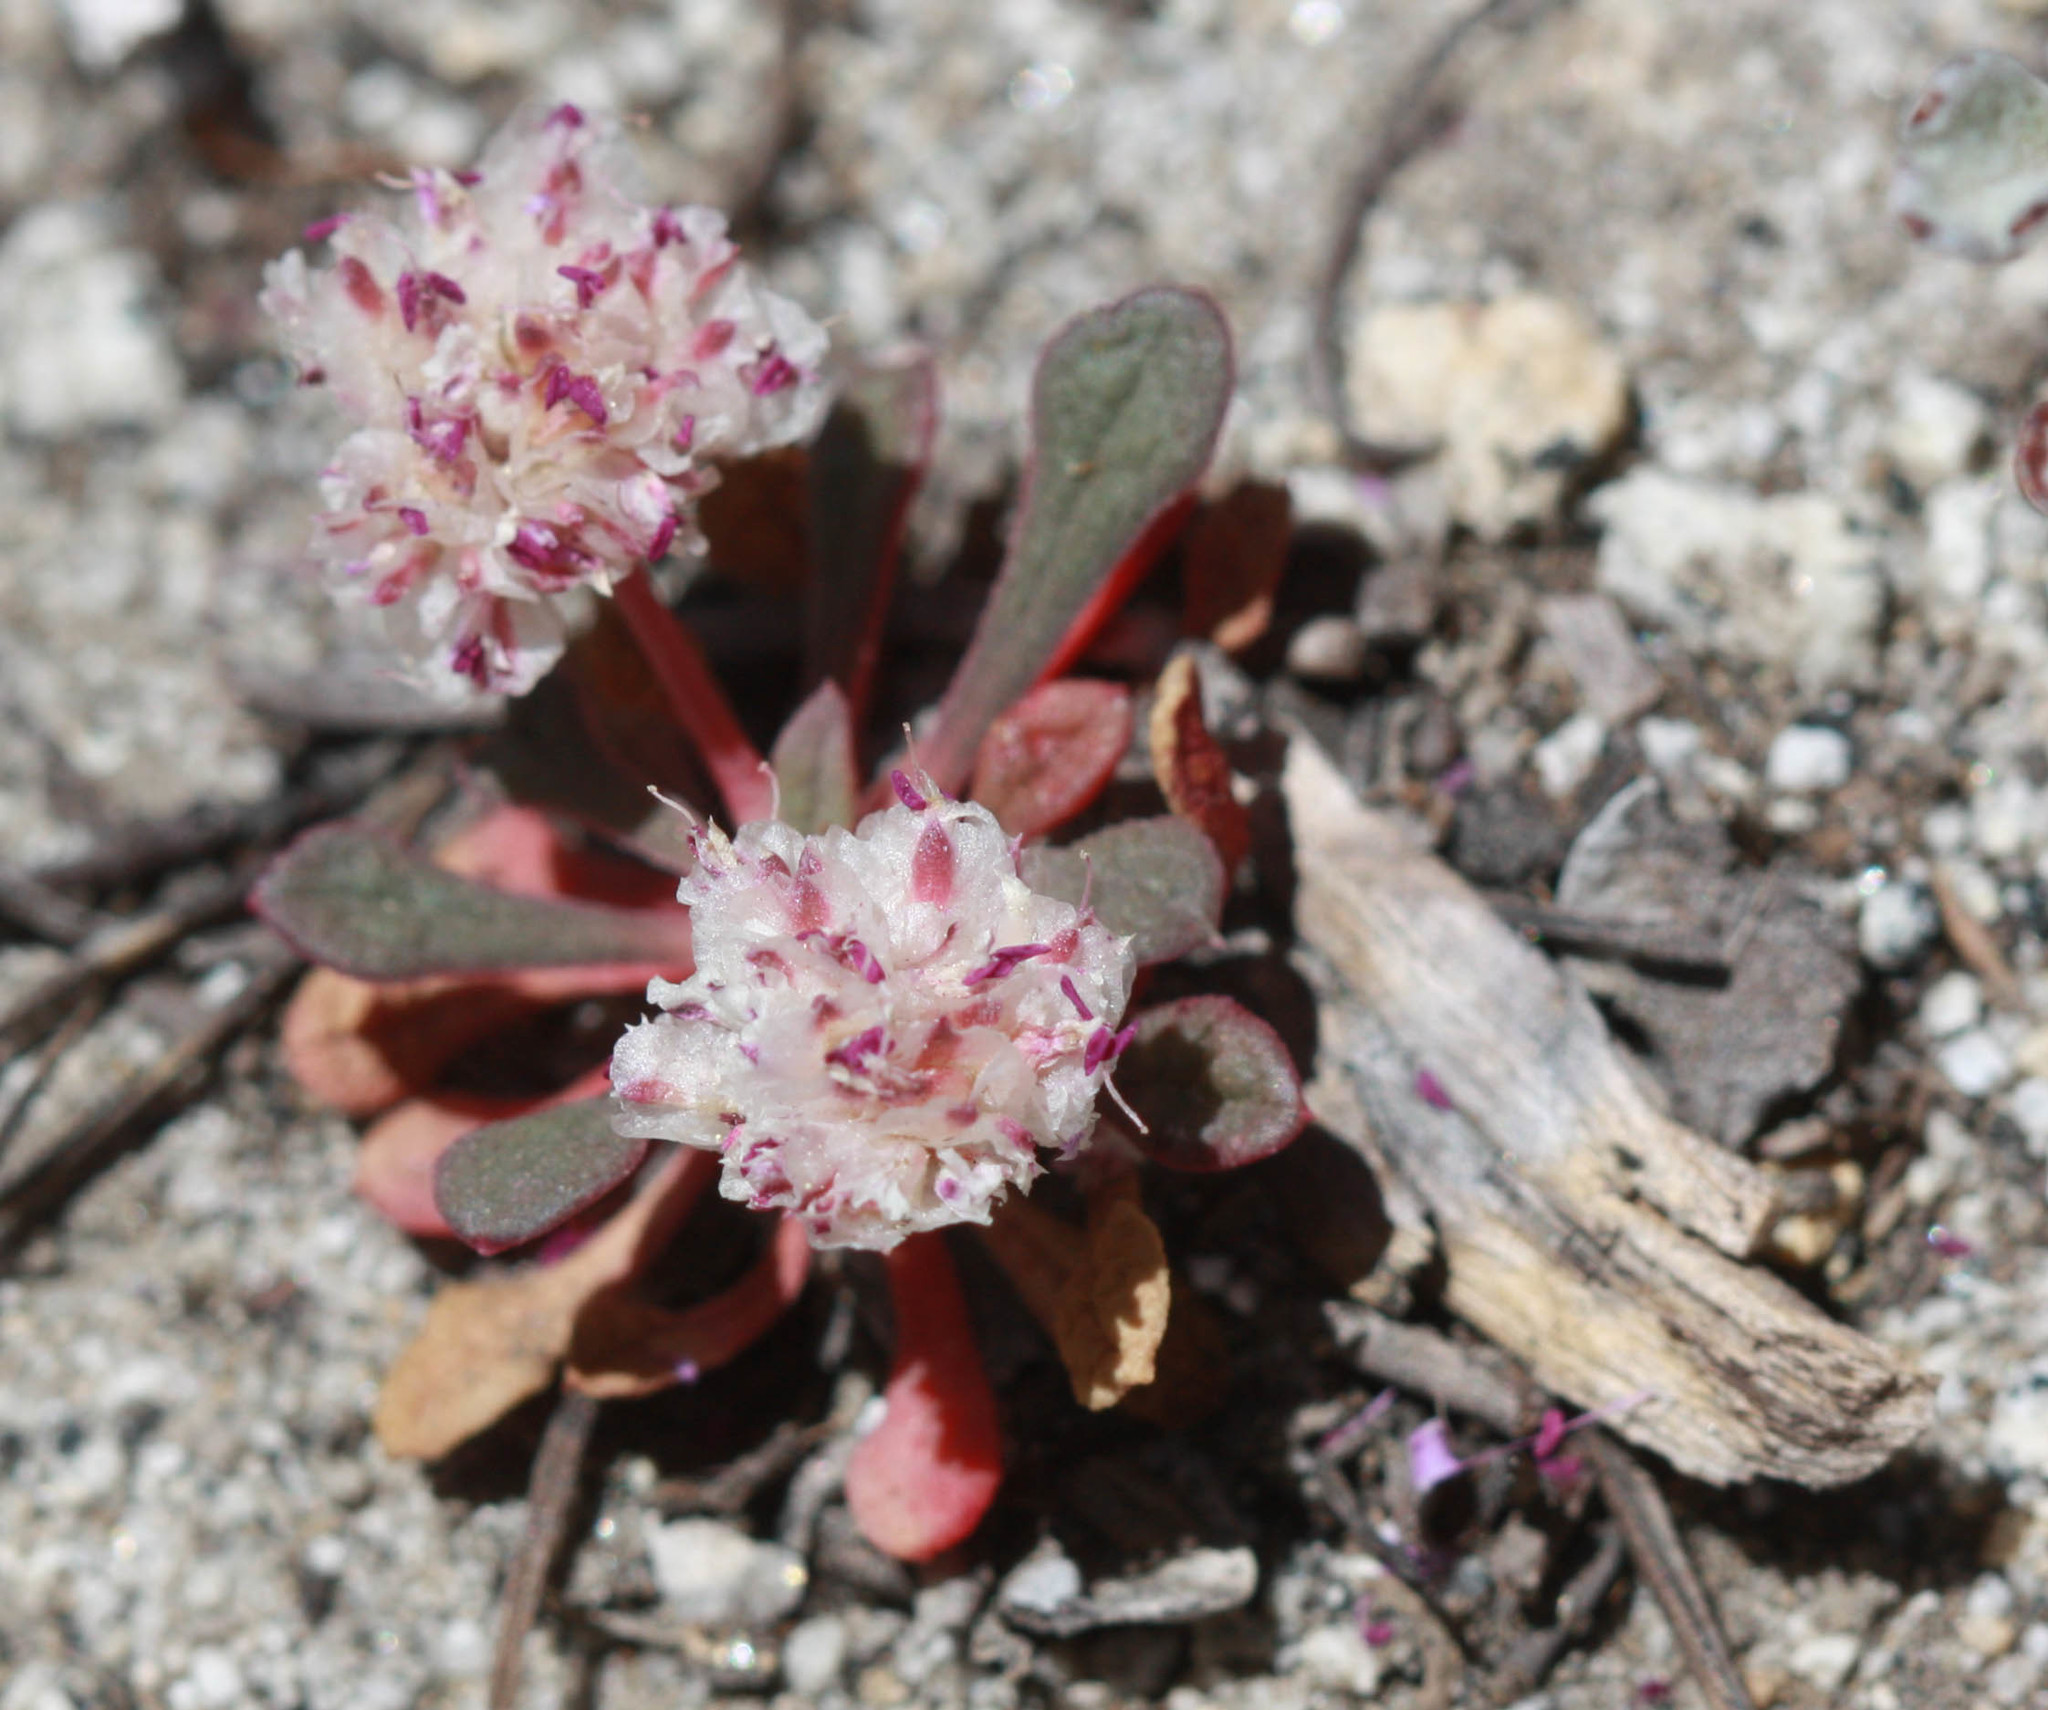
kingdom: Plantae
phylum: Tracheophyta
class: Magnoliopsida
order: Caryophyllales
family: Montiaceae
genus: Calyptridium
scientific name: Calyptridium monospermum
